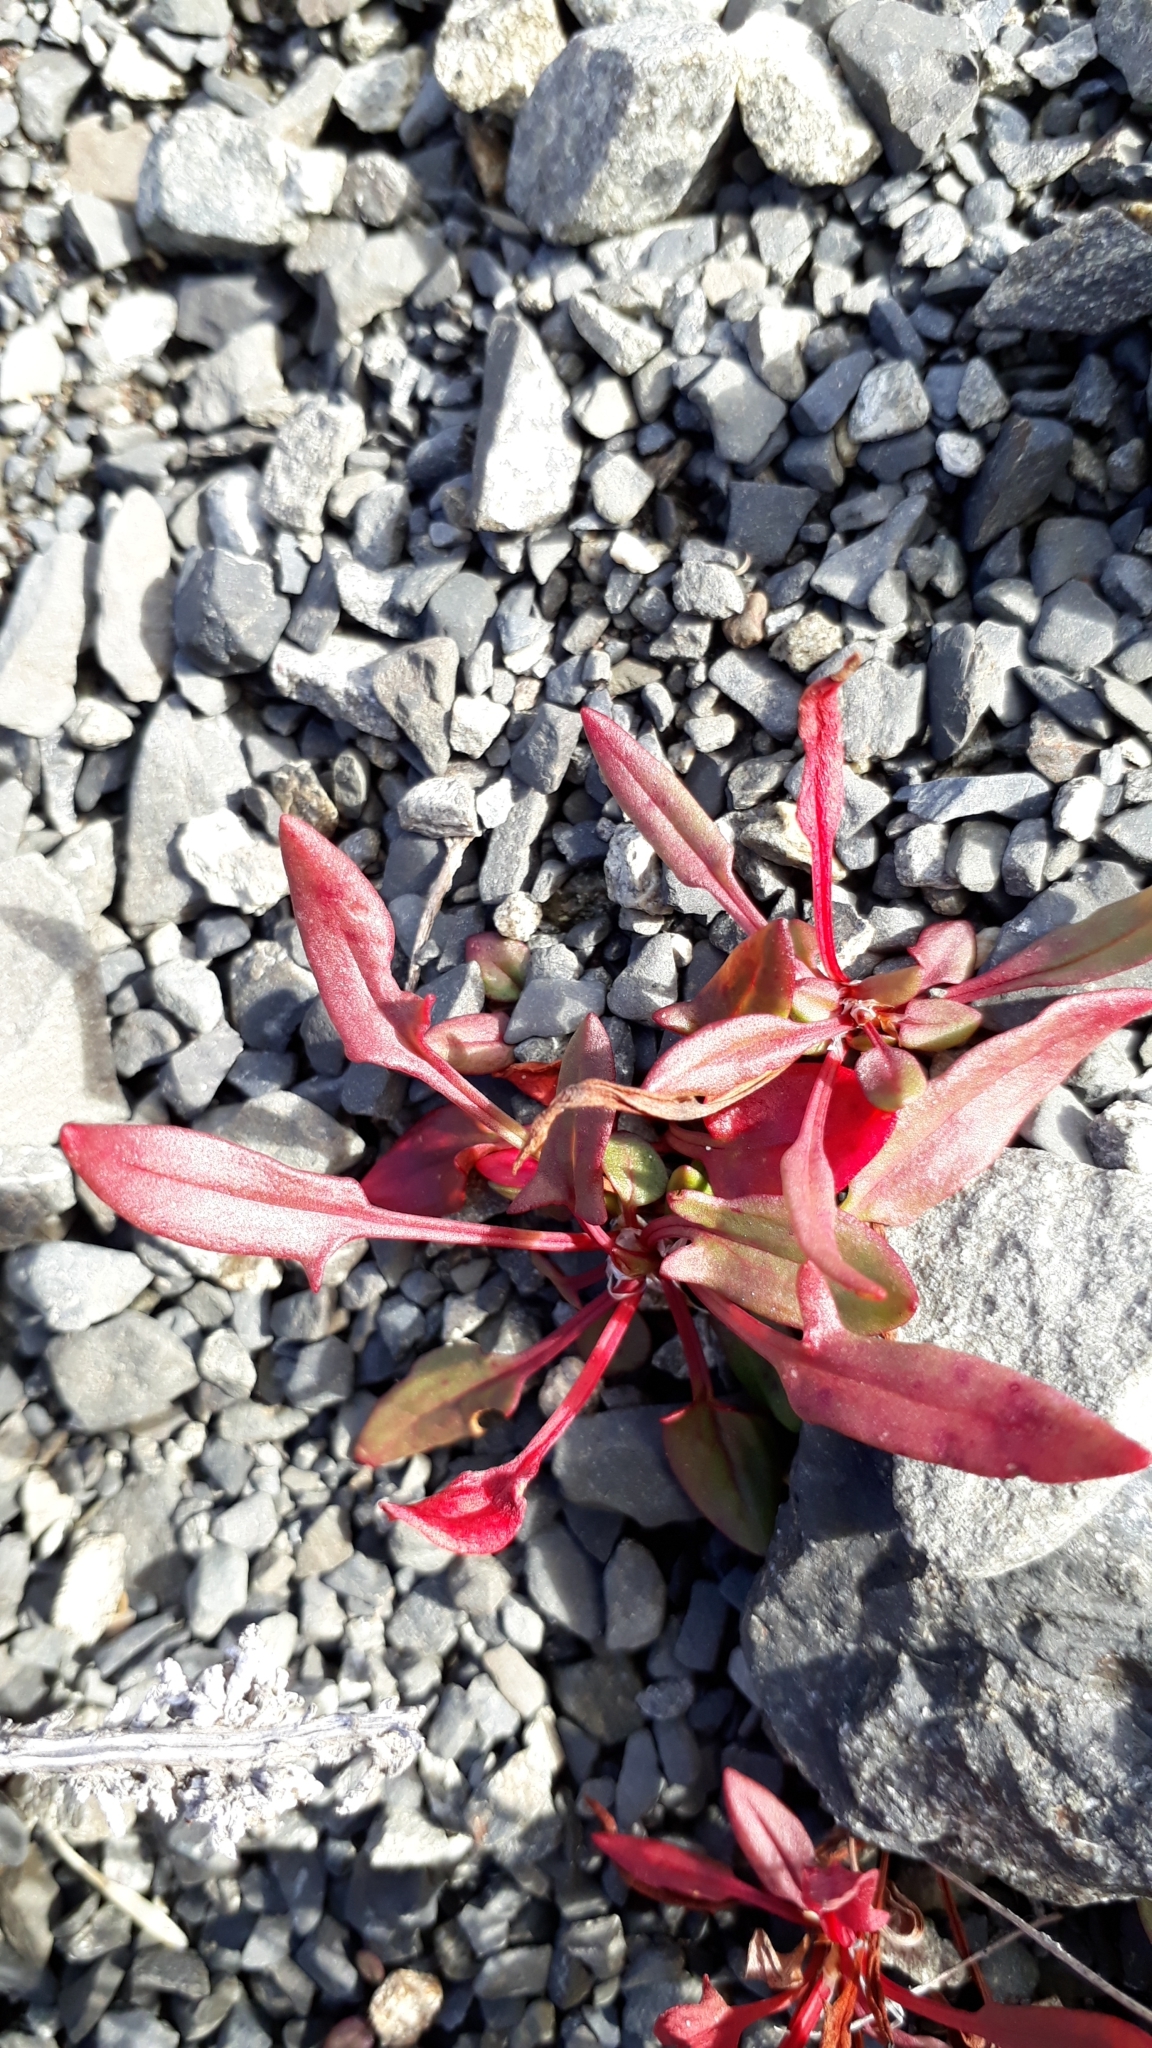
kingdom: Plantae
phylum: Tracheophyta
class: Magnoliopsida
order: Caryophyllales
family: Polygonaceae
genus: Rumex
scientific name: Rumex acetosella
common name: Common sheep sorrel
